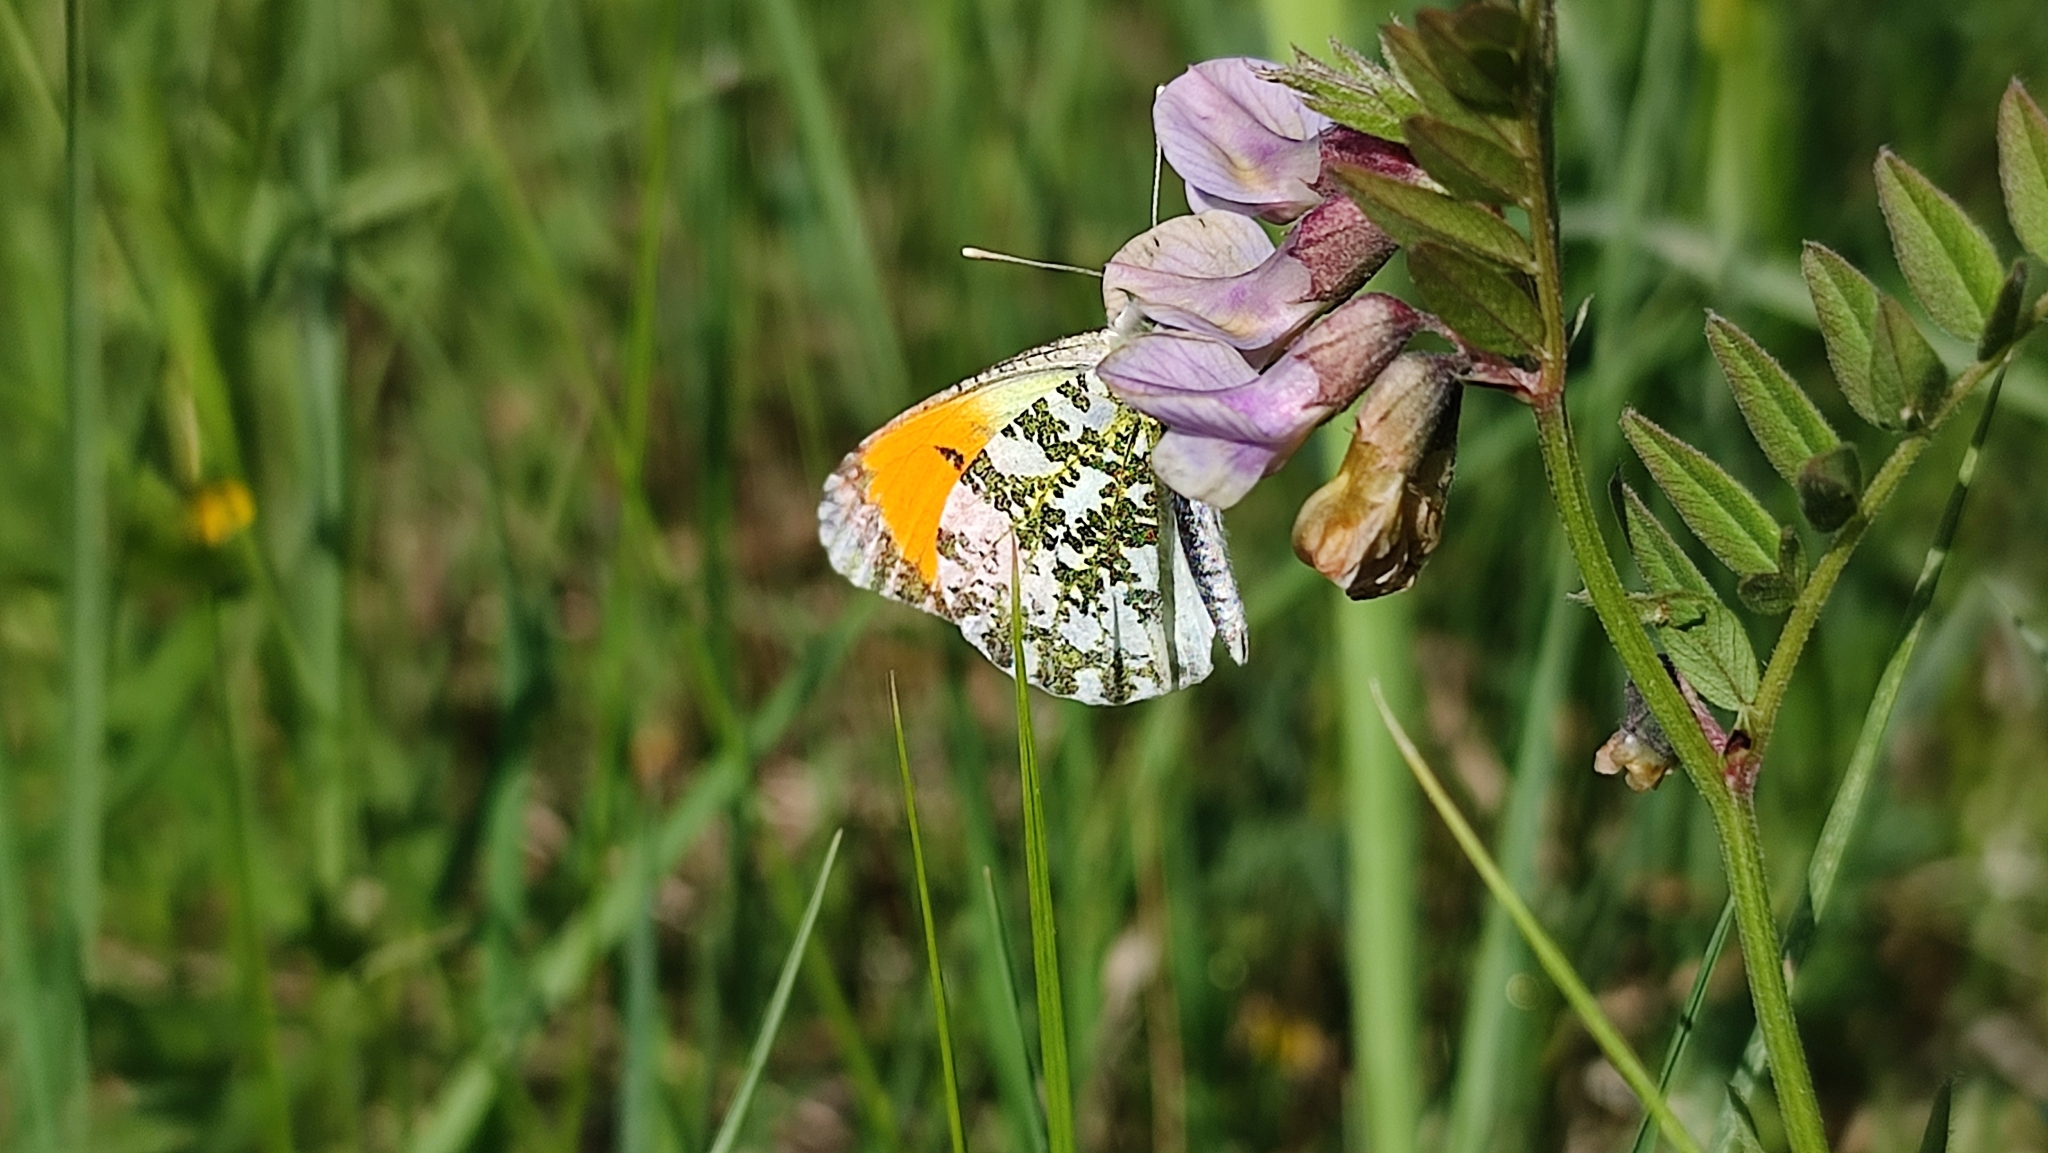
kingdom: Animalia
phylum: Arthropoda
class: Insecta
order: Lepidoptera
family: Pieridae
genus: Anthocharis
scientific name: Anthocharis cardamines
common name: Orange-tip
